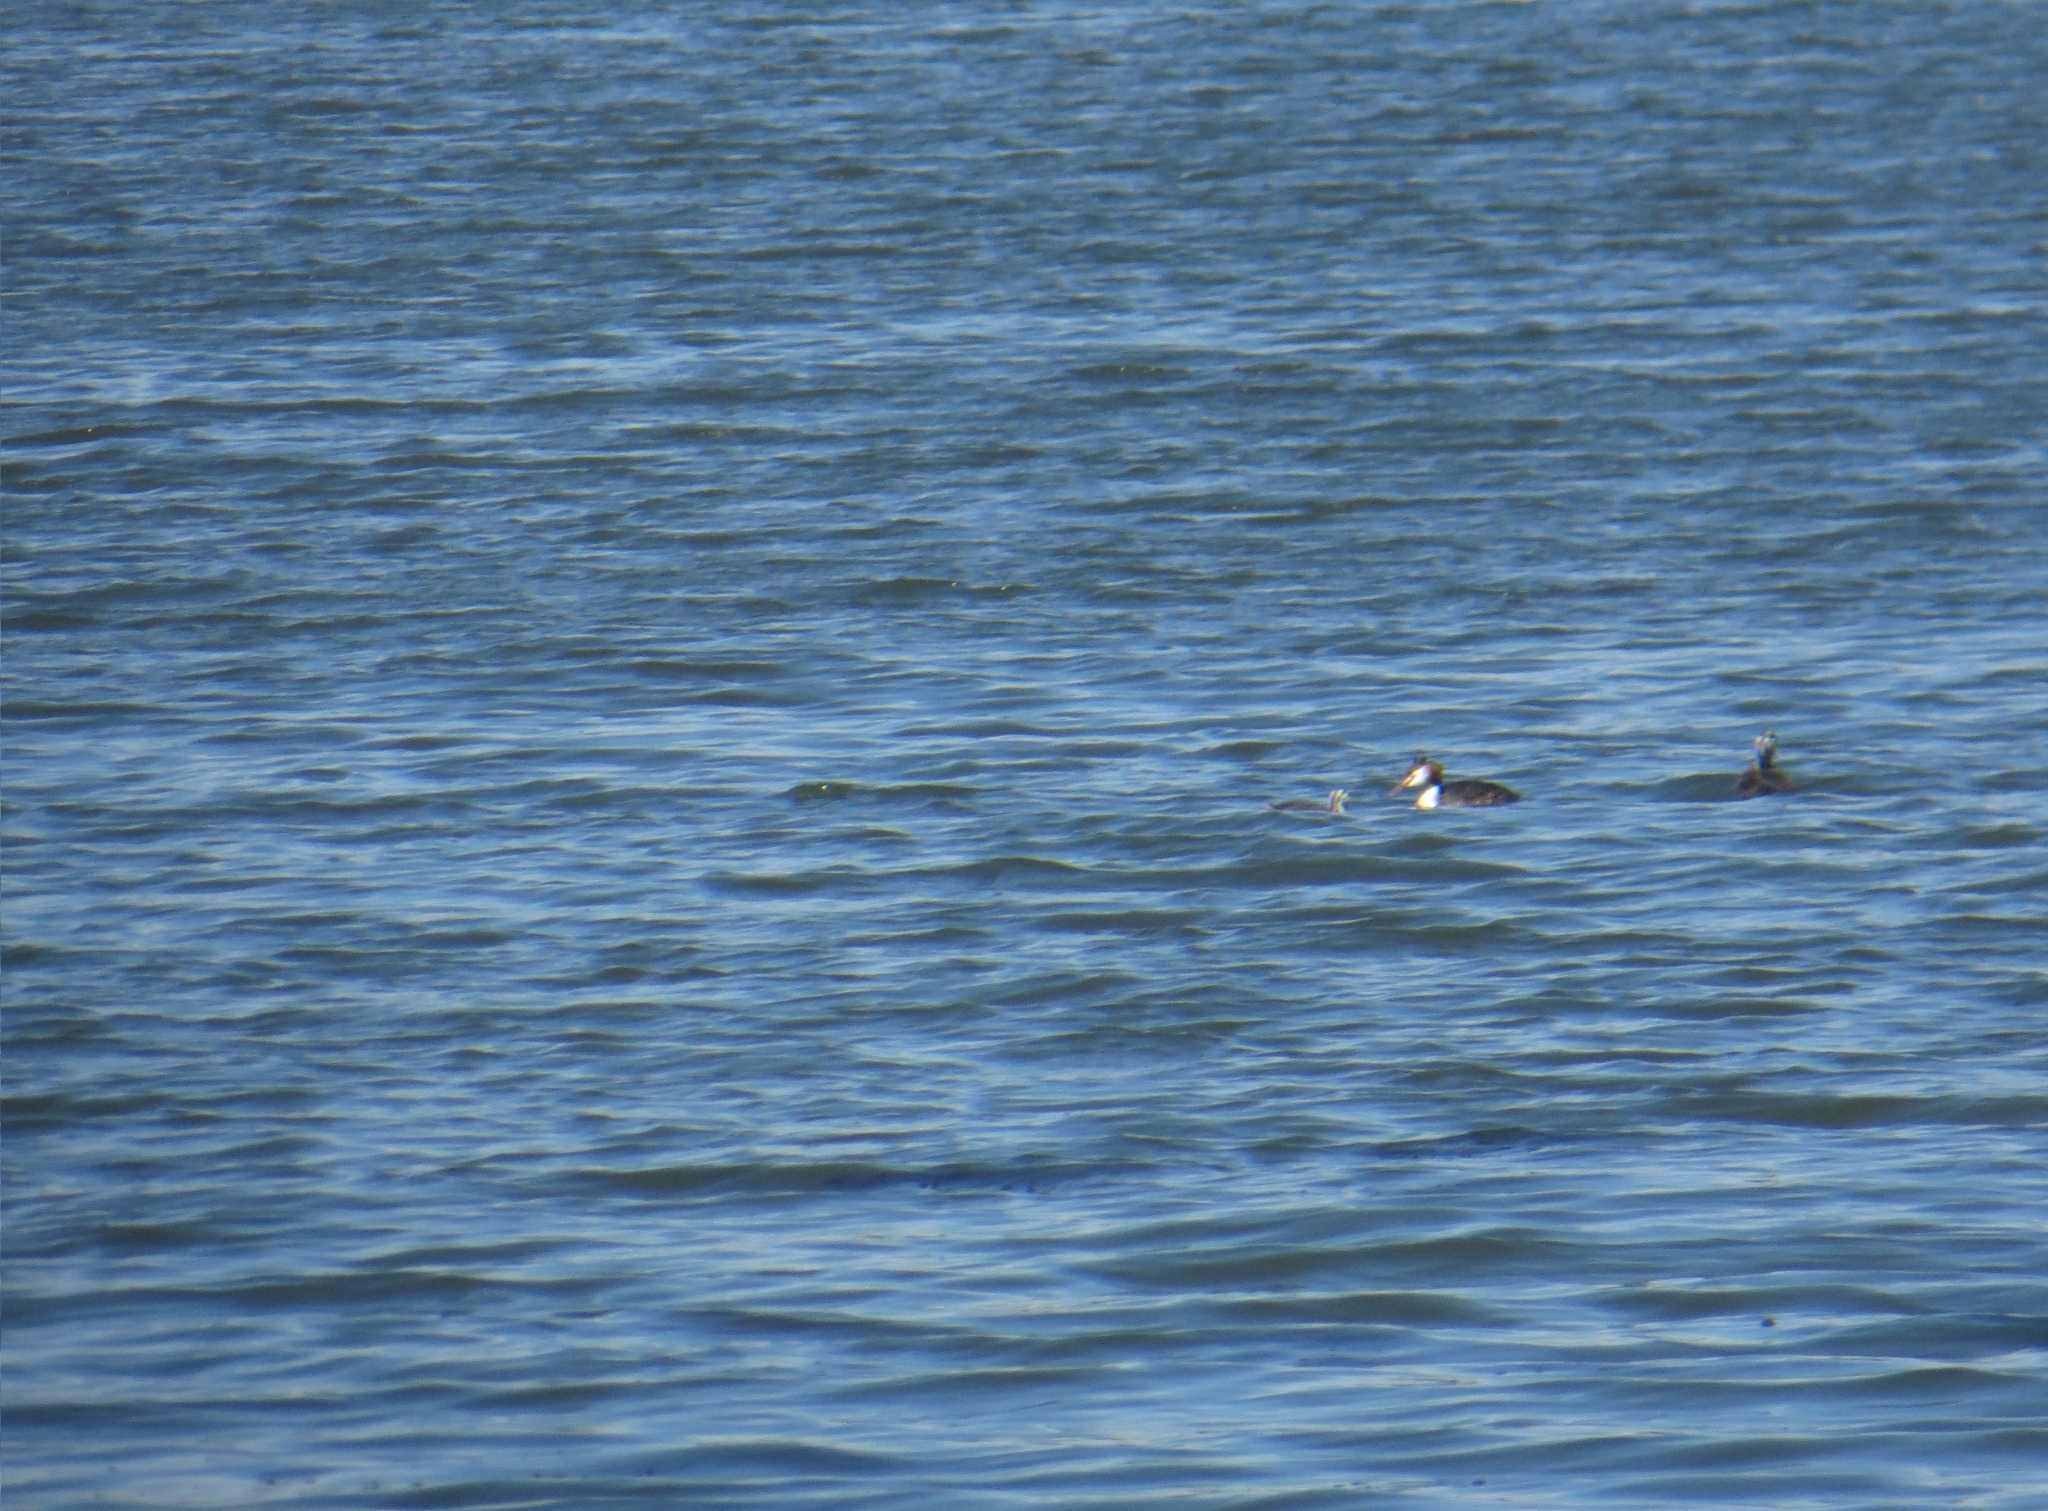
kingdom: Animalia
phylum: Chordata
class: Aves
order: Podicipediformes
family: Podicipedidae
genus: Podiceps
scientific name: Podiceps cristatus
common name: Great crested grebe
